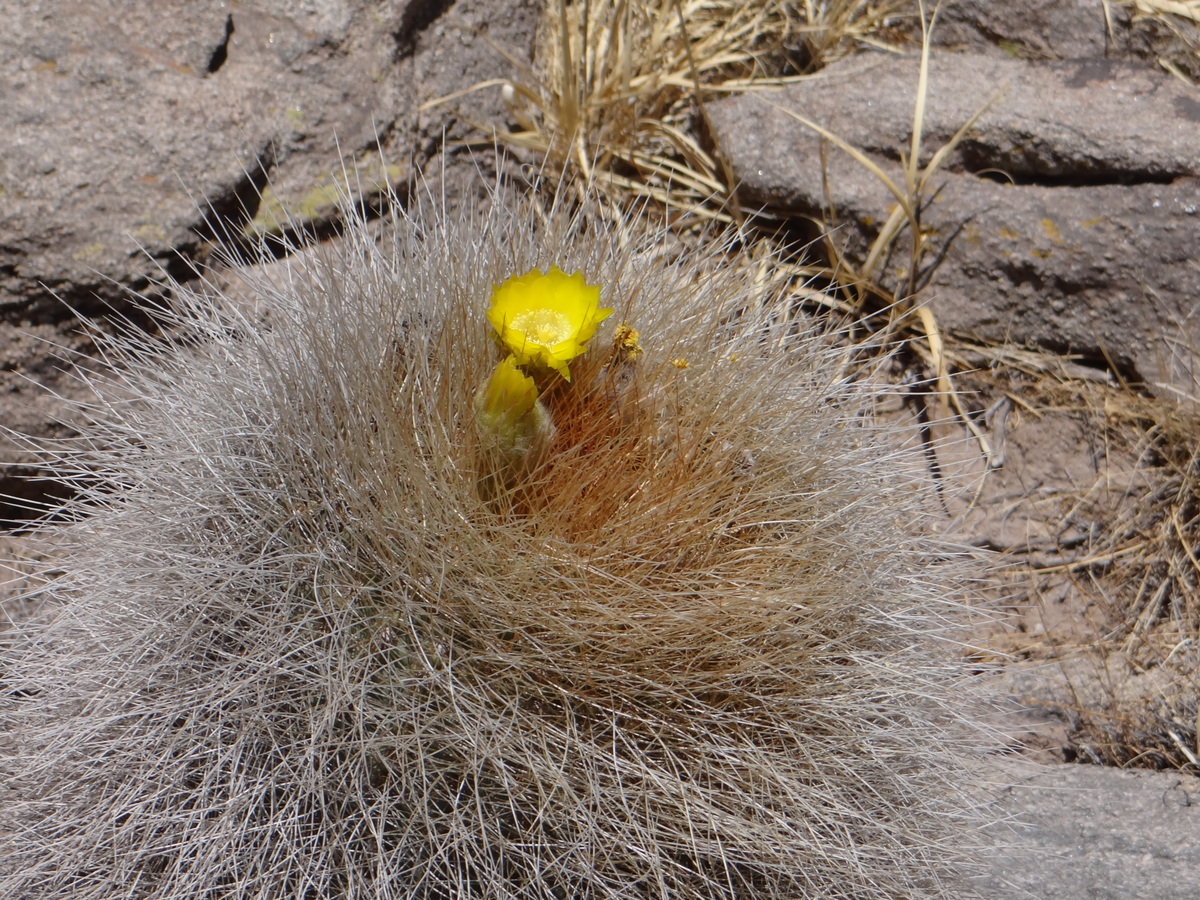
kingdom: Plantae
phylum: Tracheophyta
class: Magnoliopsida
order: Caryophyllales
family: Cactaceae
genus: Soehrensia
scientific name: Soehrensia formosa
